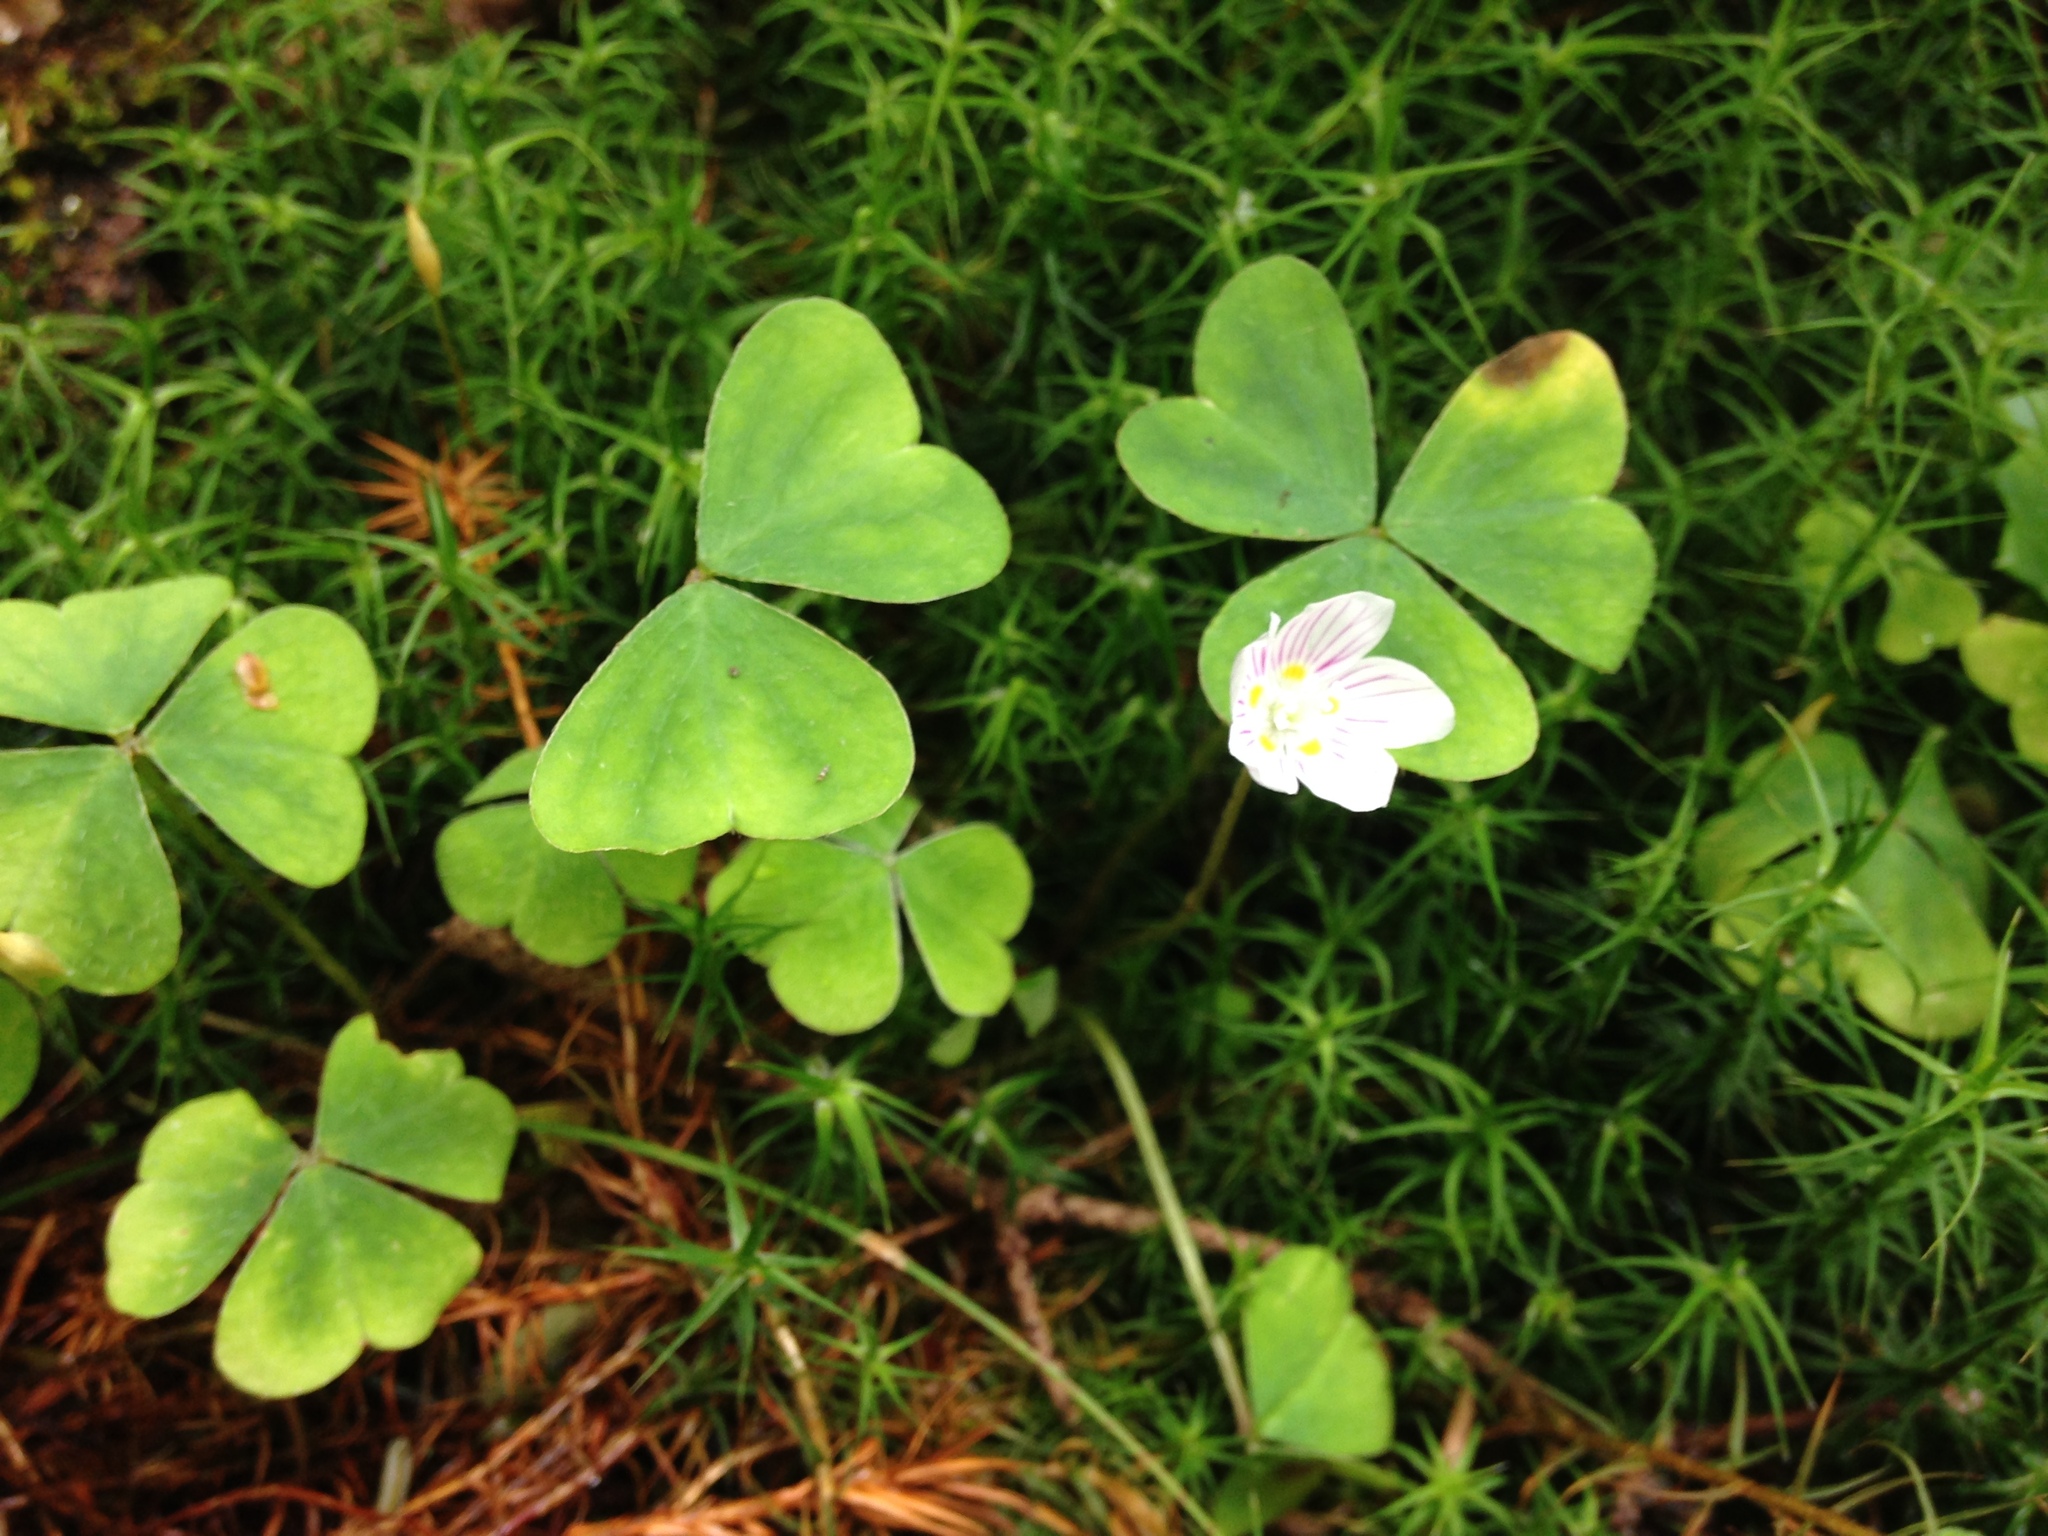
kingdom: Plantae
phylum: Tracheophyta
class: Magnoliopsida
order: Oxalidales
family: Oxalidaceae
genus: Oxalis
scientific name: Oxalis montana
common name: American wood-sorrel
